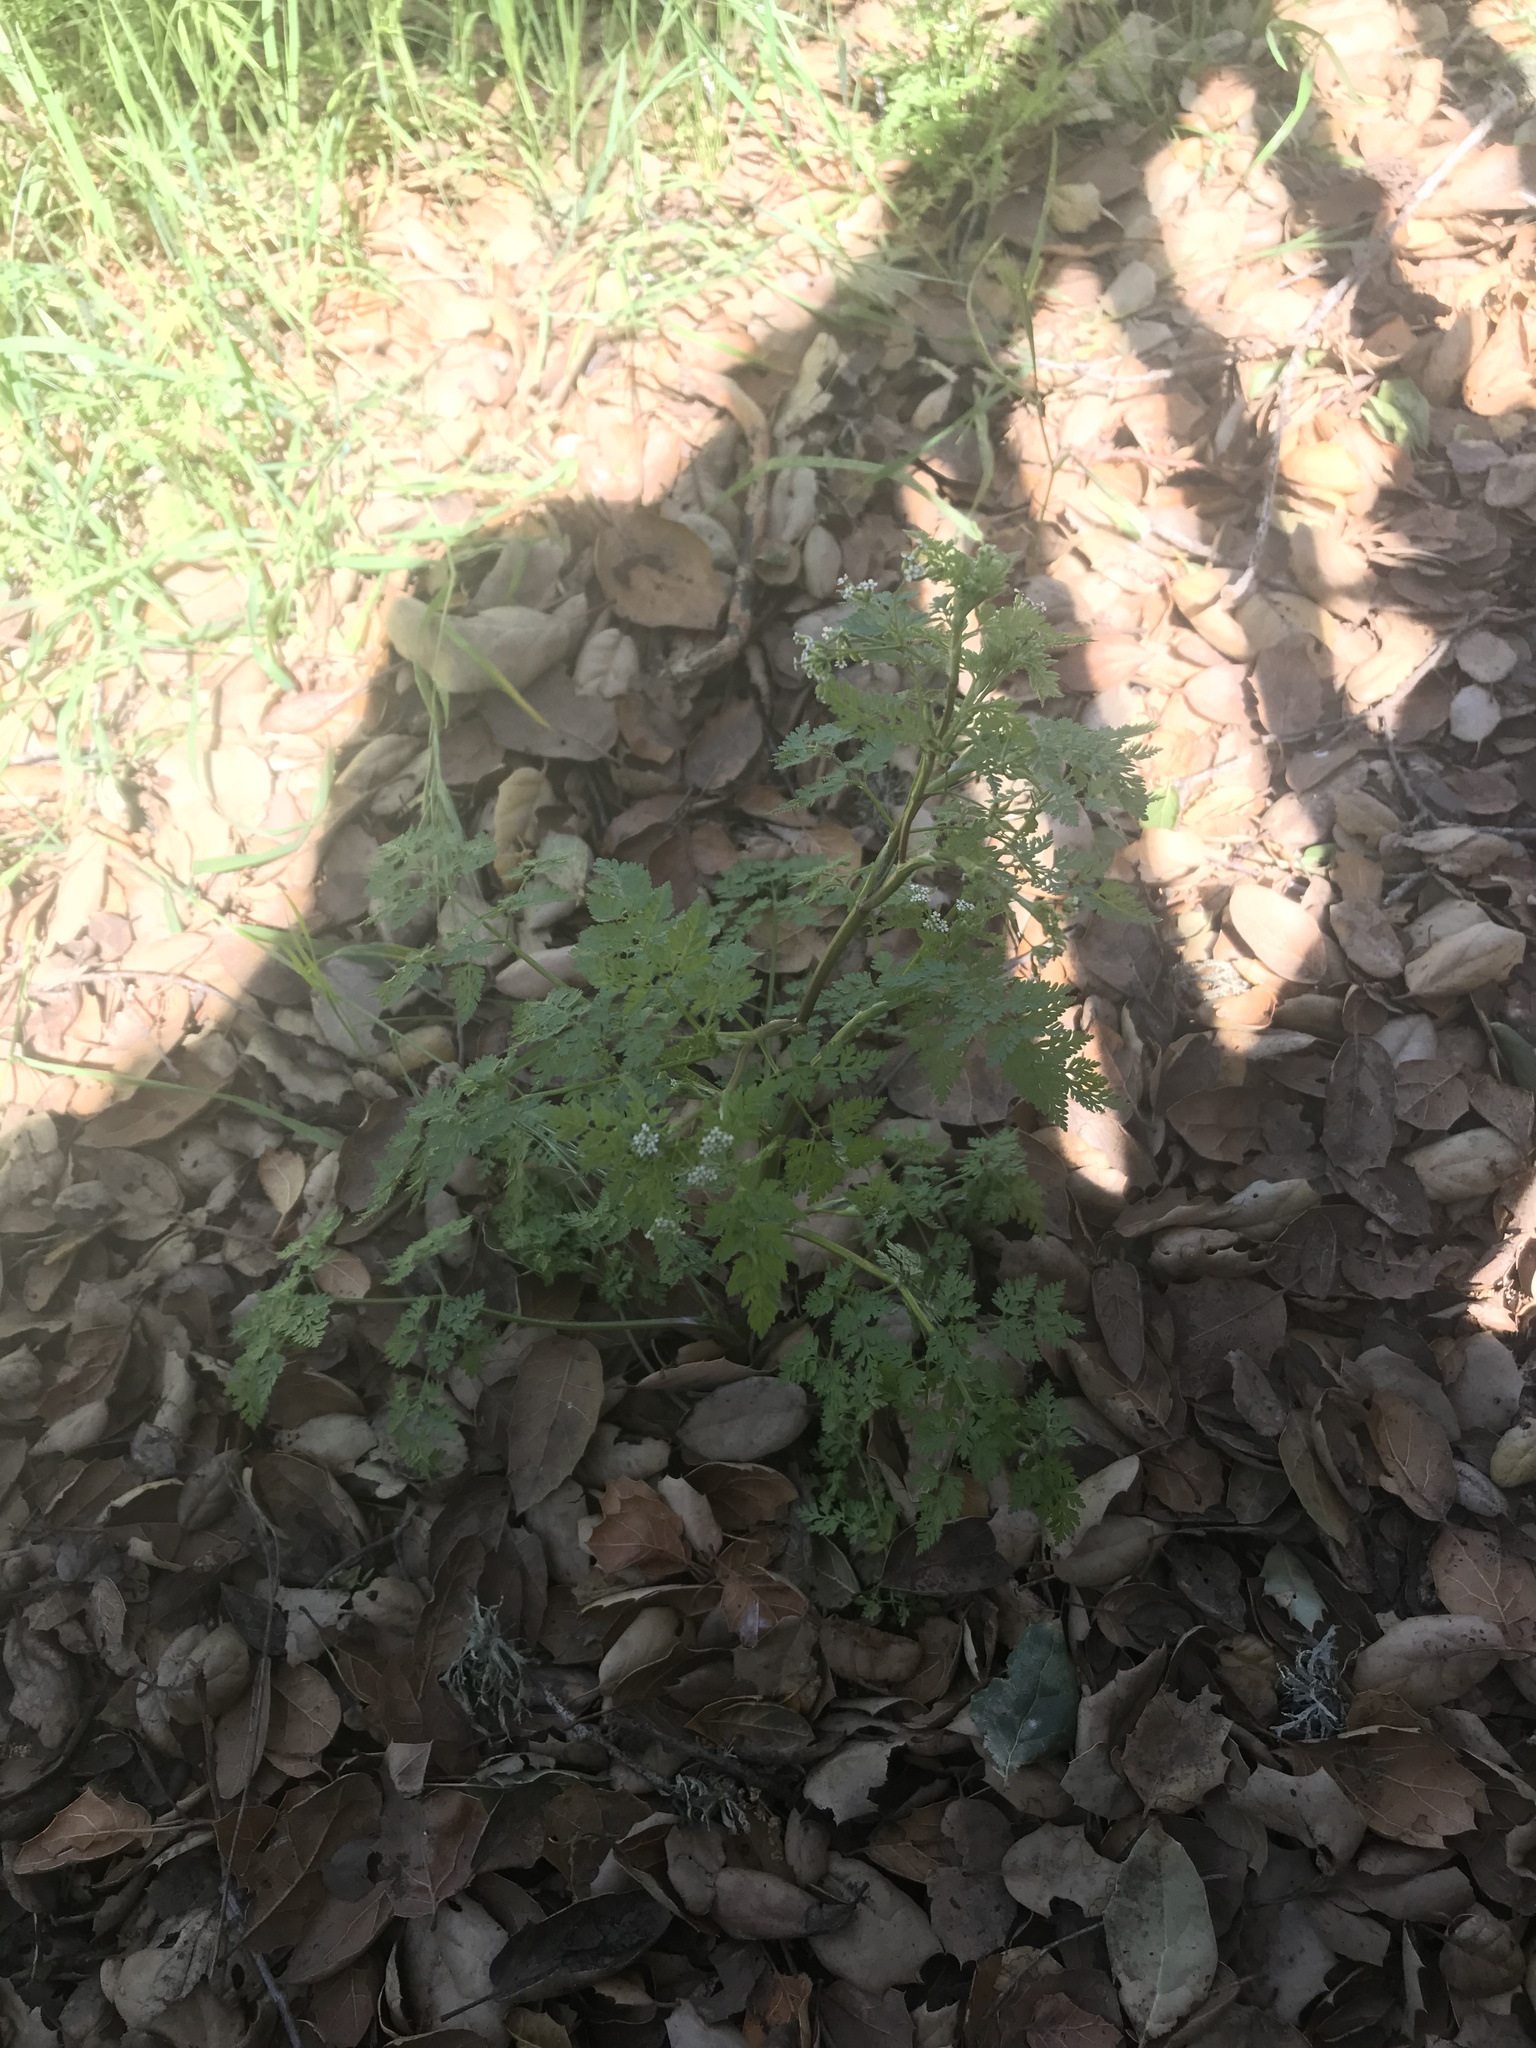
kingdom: Plantae
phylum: Tracheophyta
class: Magnoliopsida
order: Apiales
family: Apiaceae
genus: Anthriscus
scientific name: Anthriscus caucalis
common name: Bur chervil
